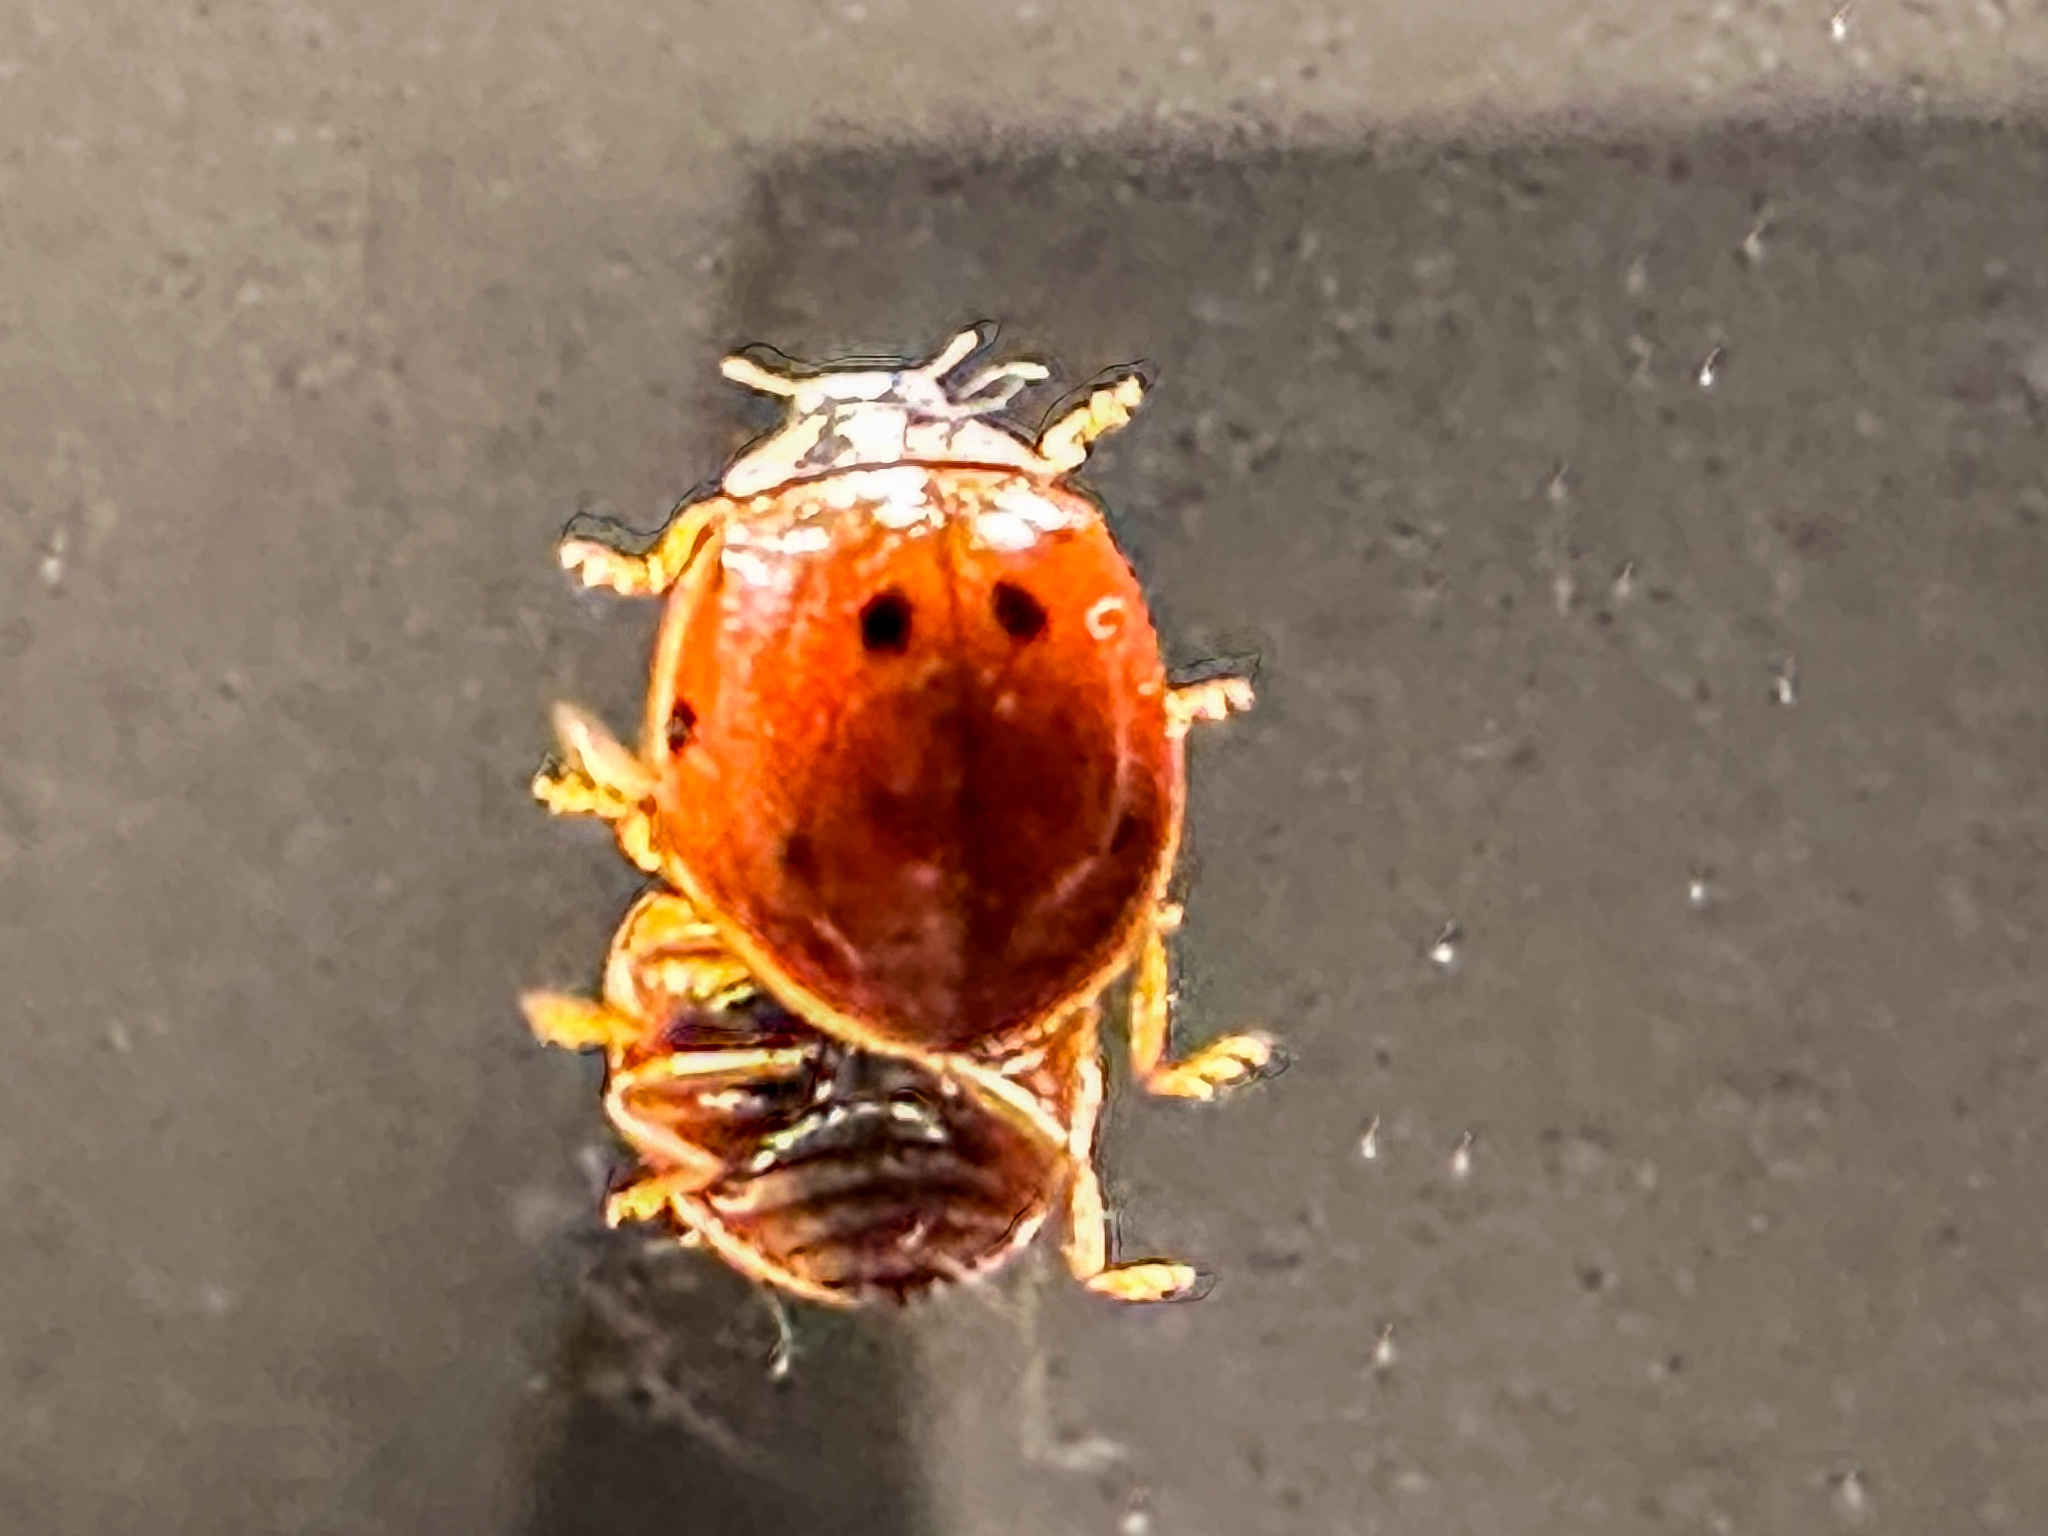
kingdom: Animalia
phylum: Arthropoda
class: Insecta
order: Coleoptera
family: Coccinellidae
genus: Harmonia
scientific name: Harmonia axyridis
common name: Harlequin ladybird
